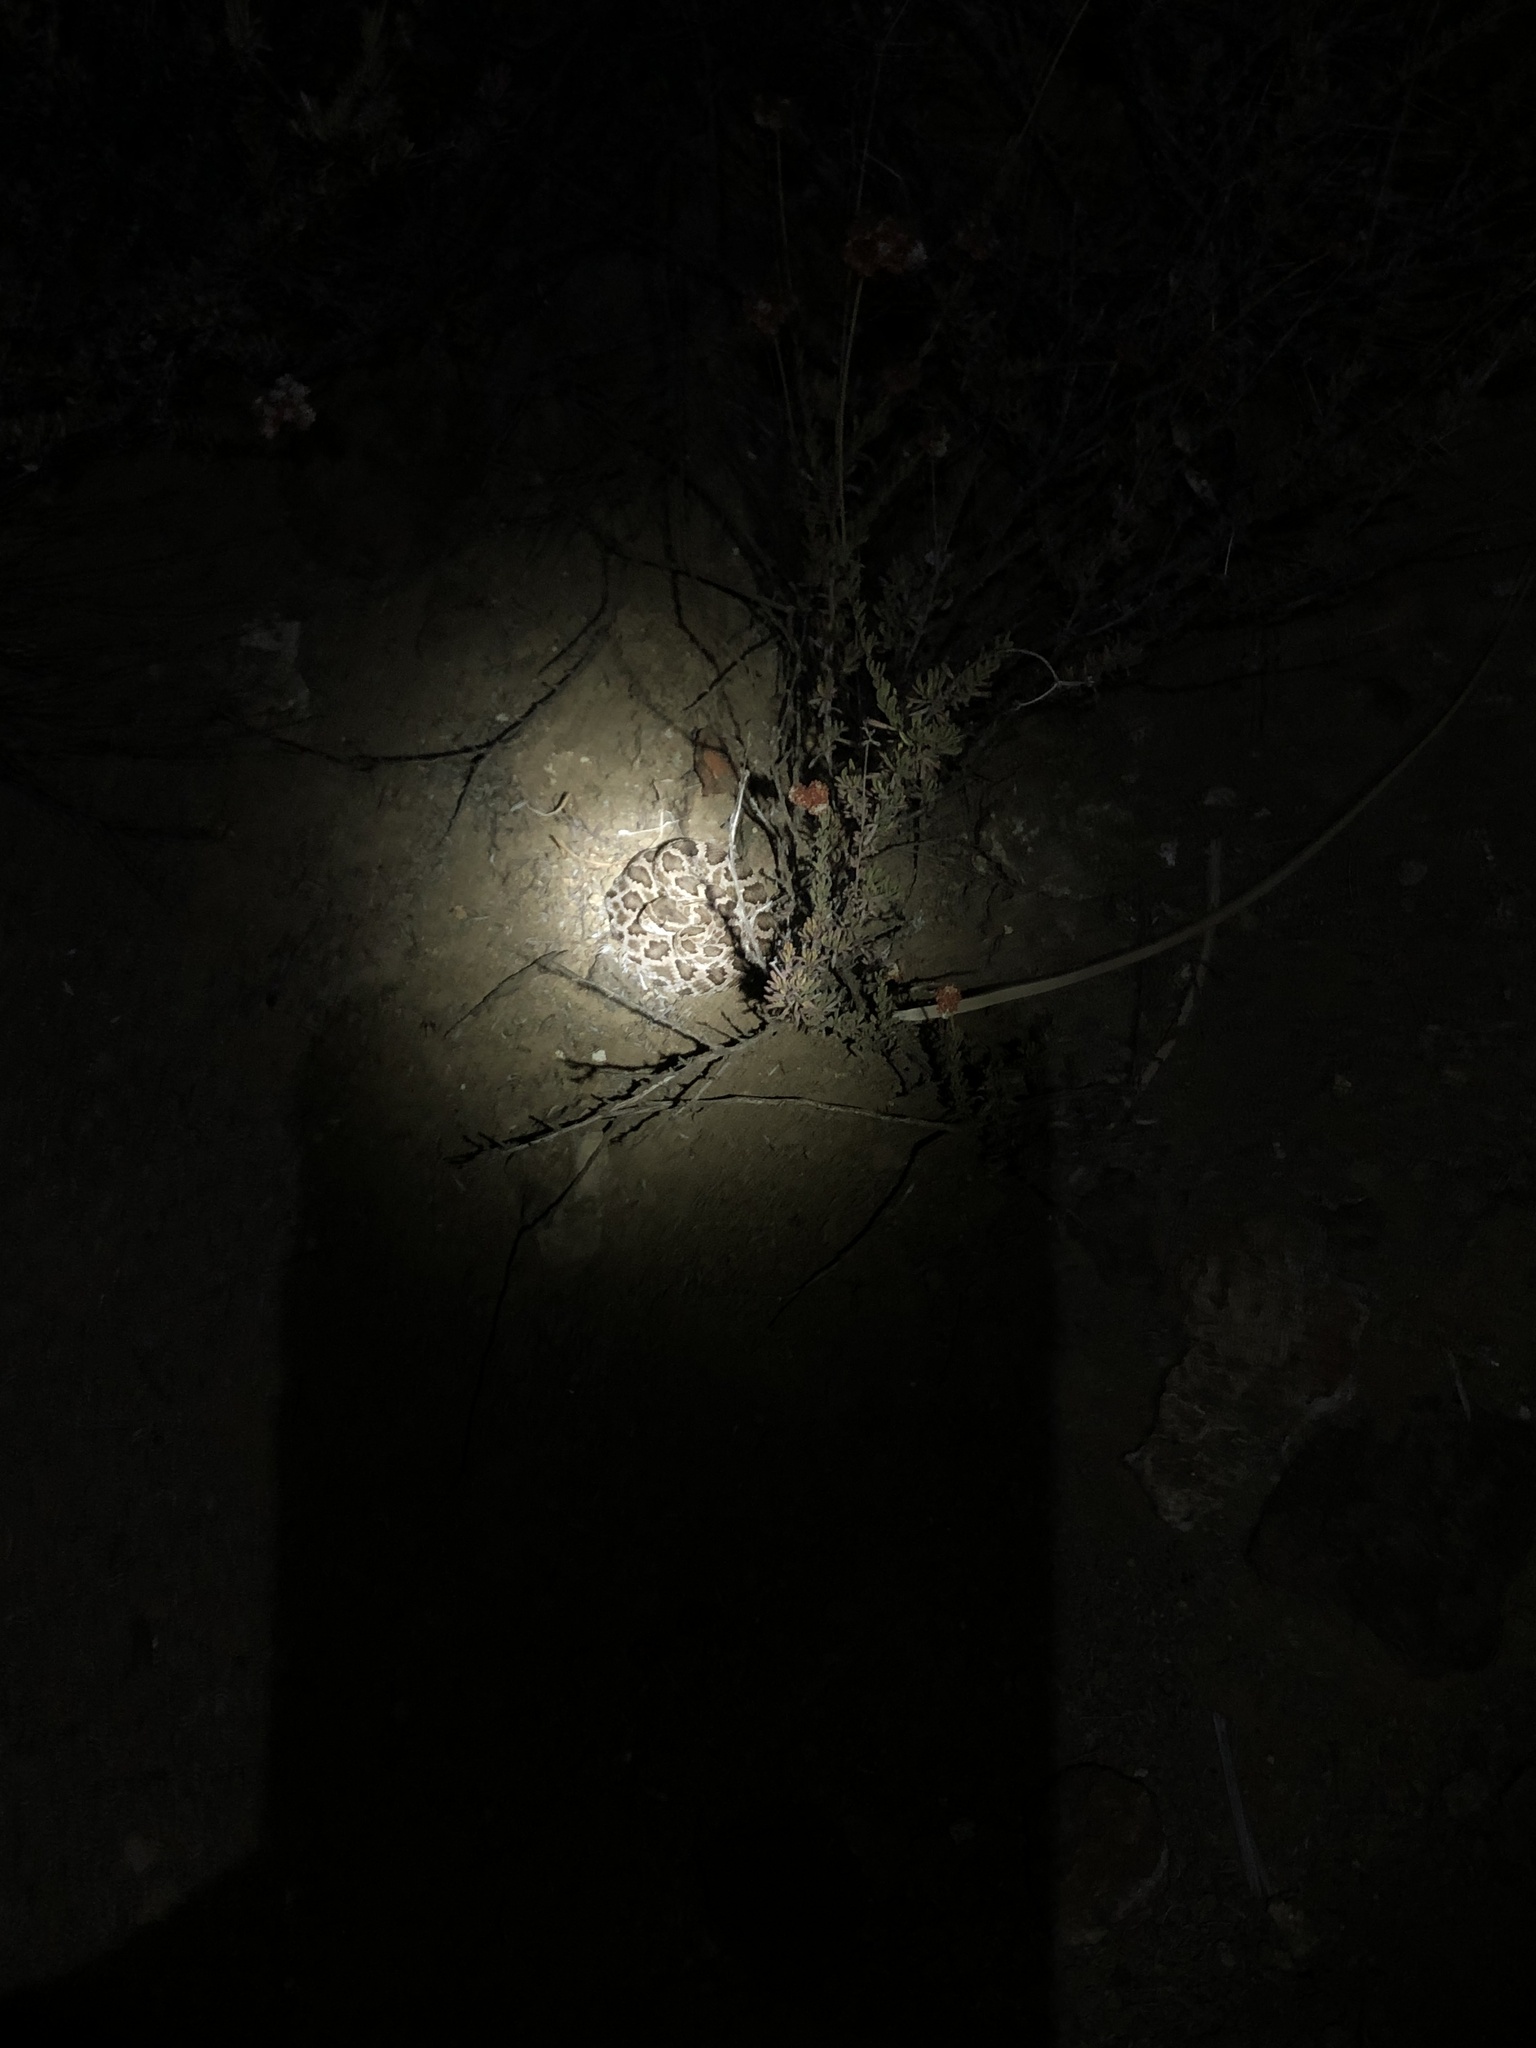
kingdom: Animalia
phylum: Chordata
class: Squamata
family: Viperidae
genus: Crotalus
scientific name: Crotalus oreganus
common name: Abyssus
